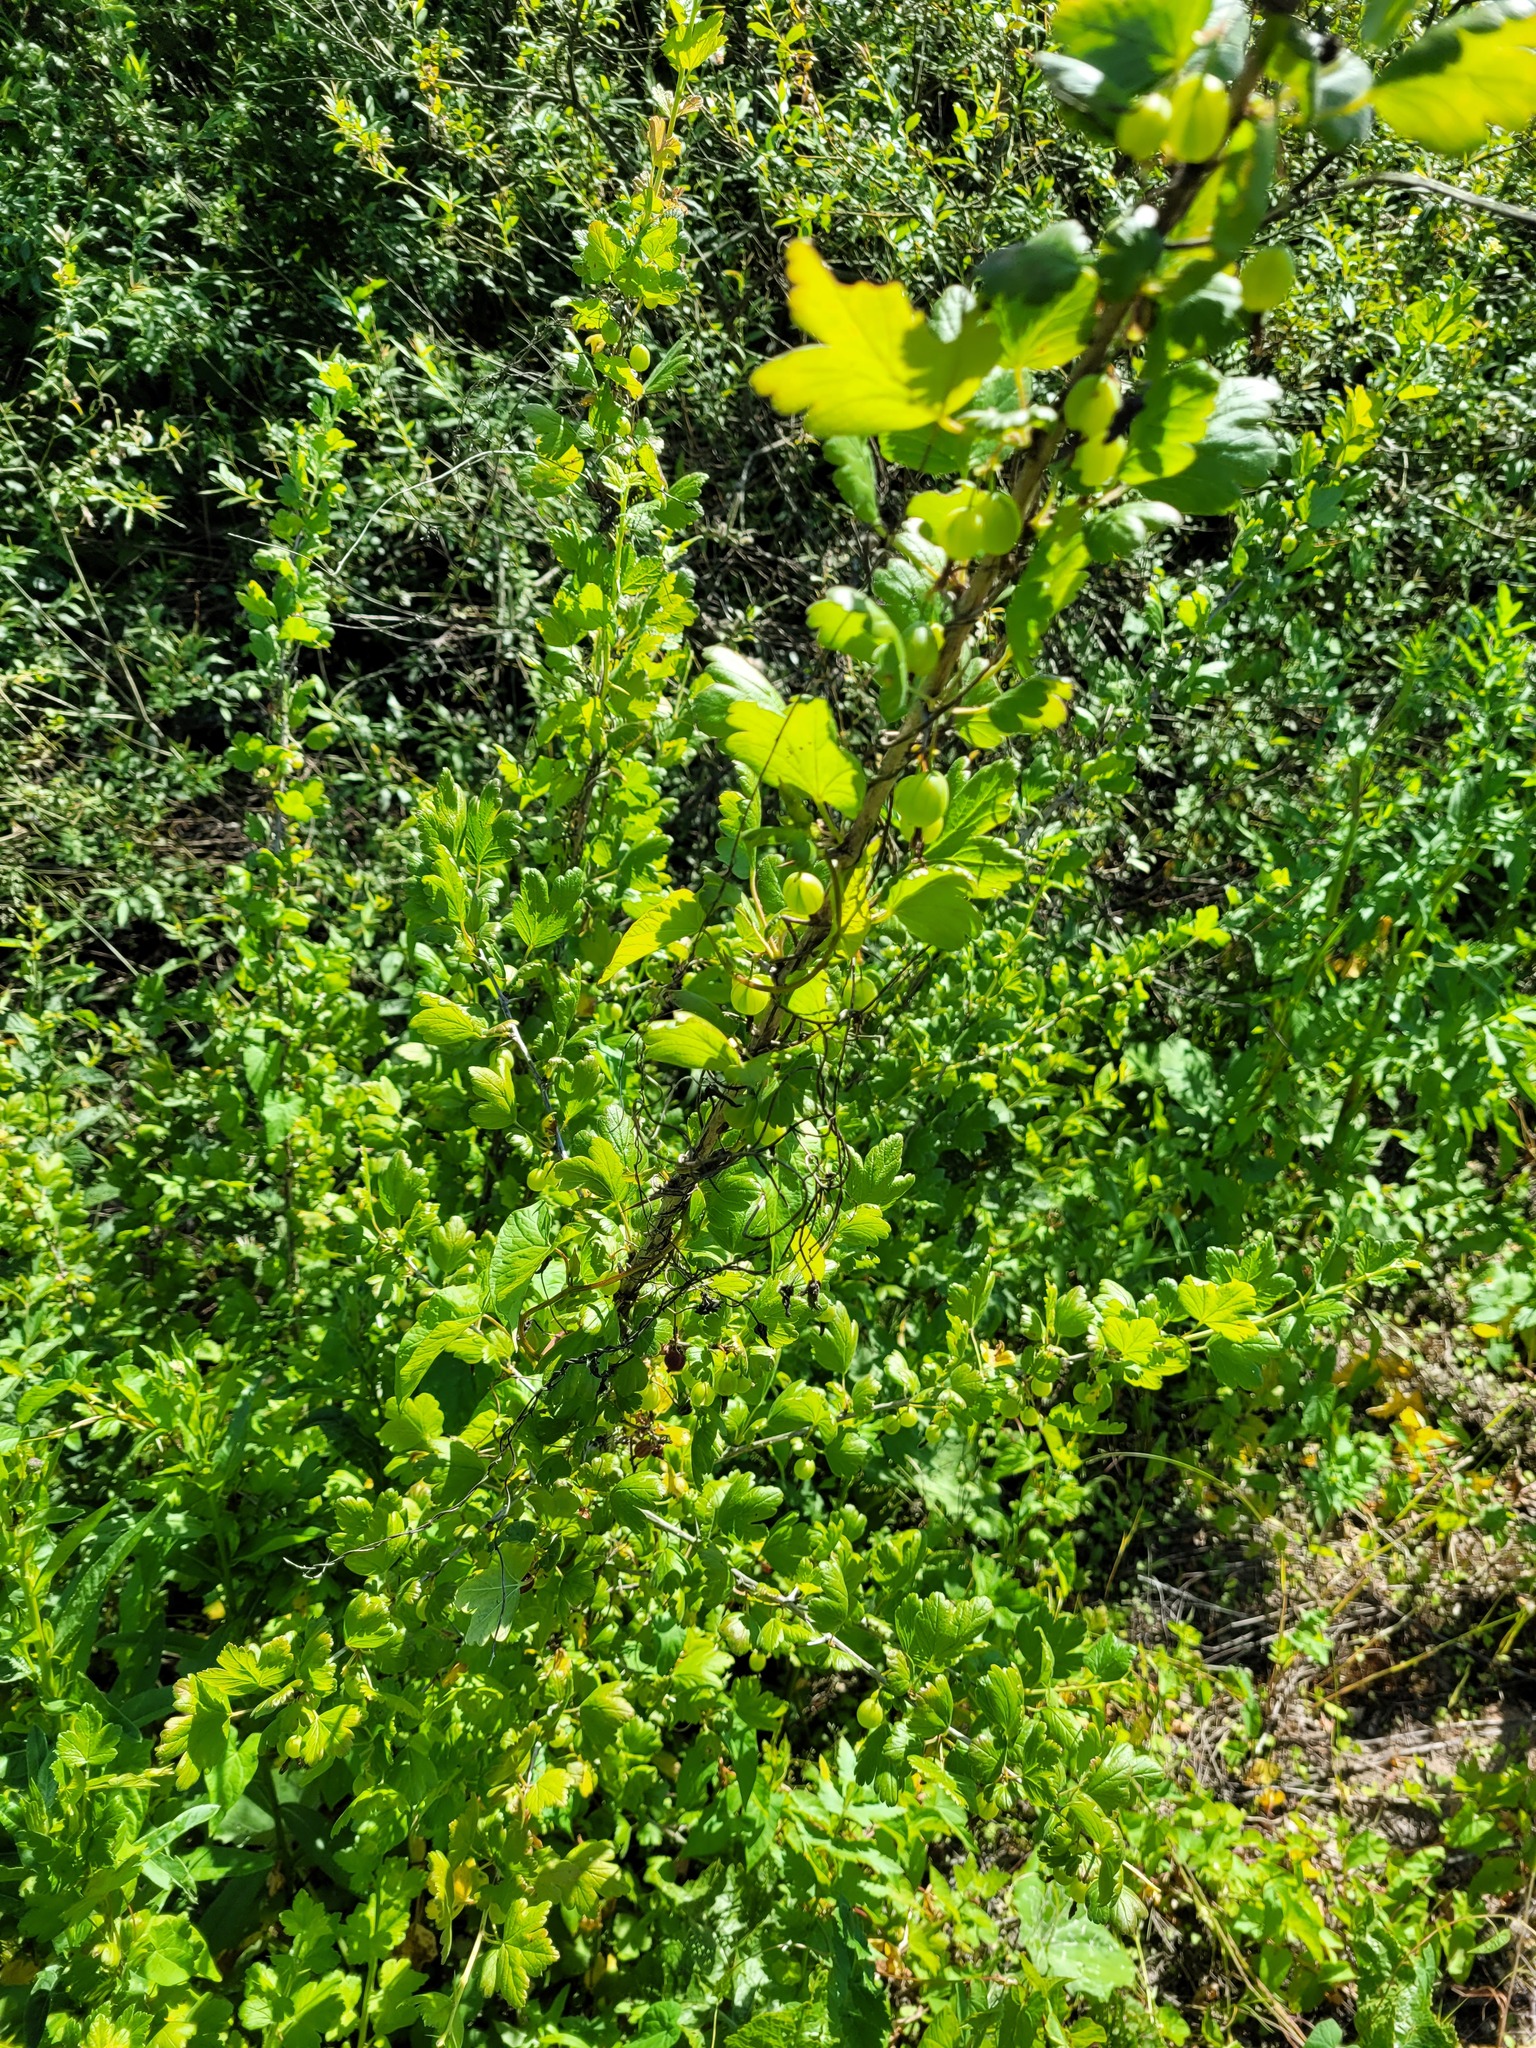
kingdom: Plantae
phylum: Tracheophyta
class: Magnoliopsida
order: Saxifragales
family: Grossulariaceae
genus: Ribes
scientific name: Ribes uva-crispa
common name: Gooseberry
